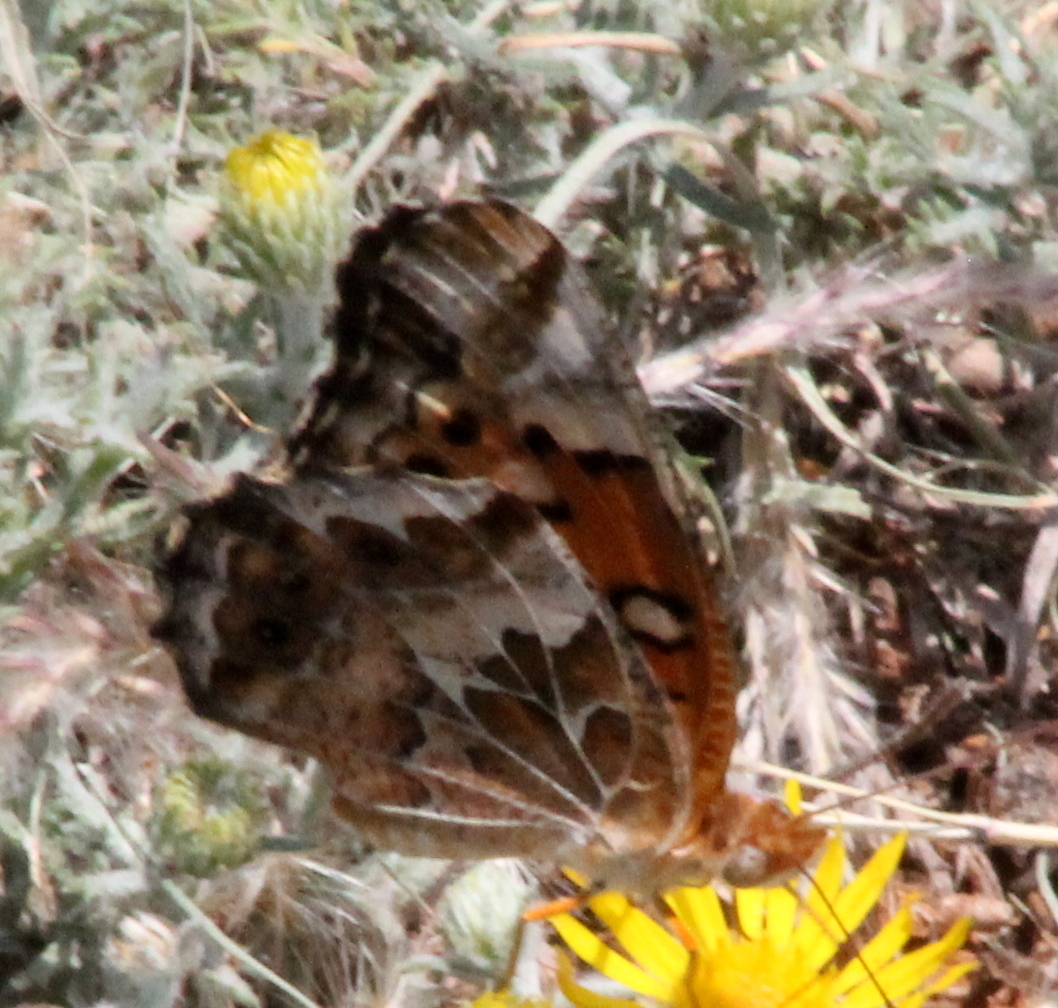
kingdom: Animalia
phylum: Arthropoda
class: Insecta
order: Lepidoptera
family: Nymphalidae
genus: Euptoieta
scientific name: Euptoieta claudia
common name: Variegated fritillary
